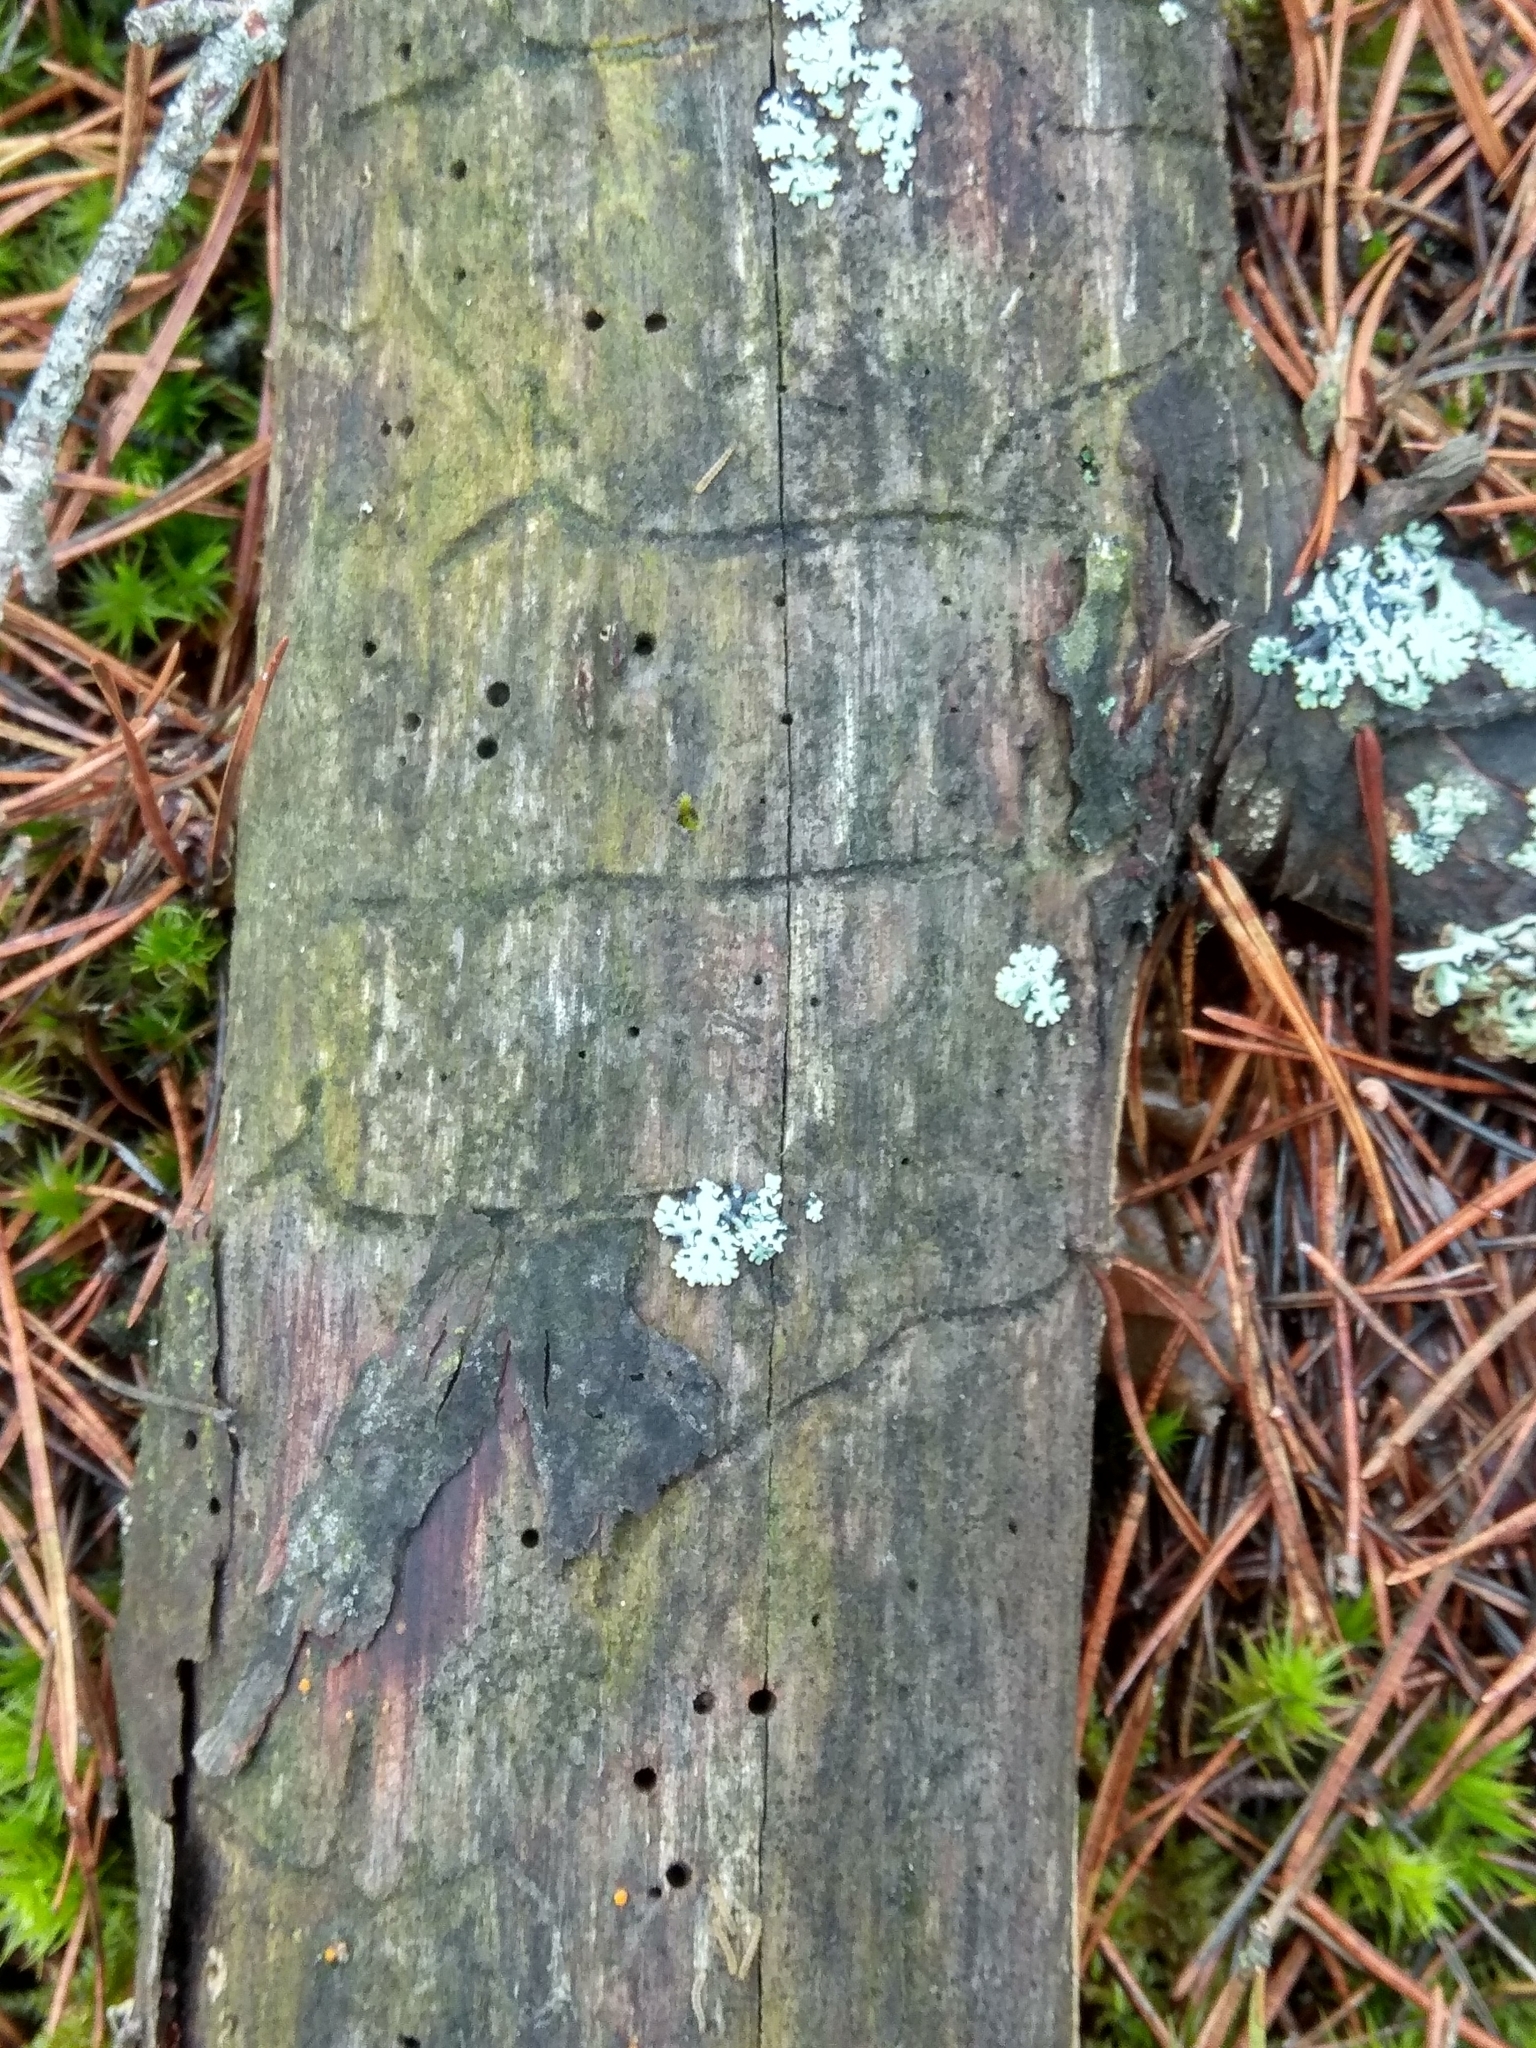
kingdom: Animalia
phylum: Arthropoda
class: Insecta
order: Coleoptera
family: Curculionidae
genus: Tomicus
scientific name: Tomicus minor
